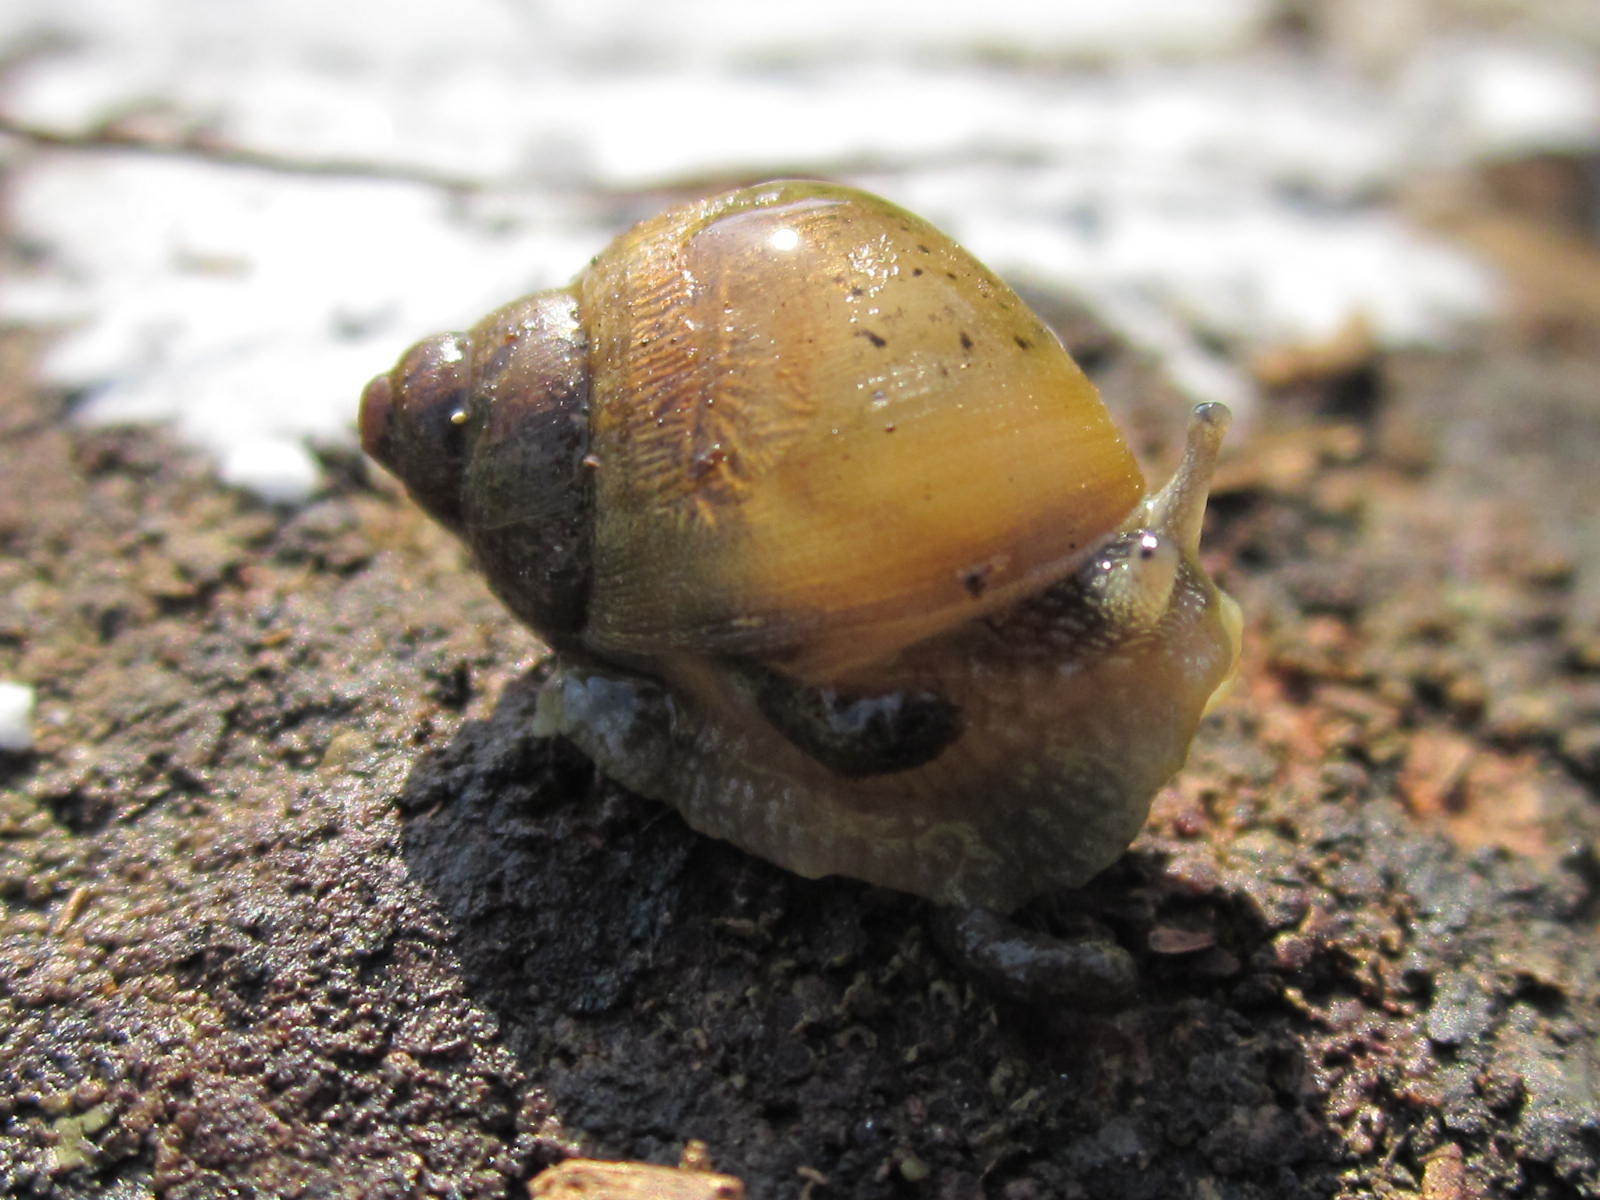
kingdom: Animalia
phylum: Mollusca
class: Gastropoda
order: Stylommatophora
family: Bothriembryontidae
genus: Plectostylus
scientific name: Plectostylus chilensis
